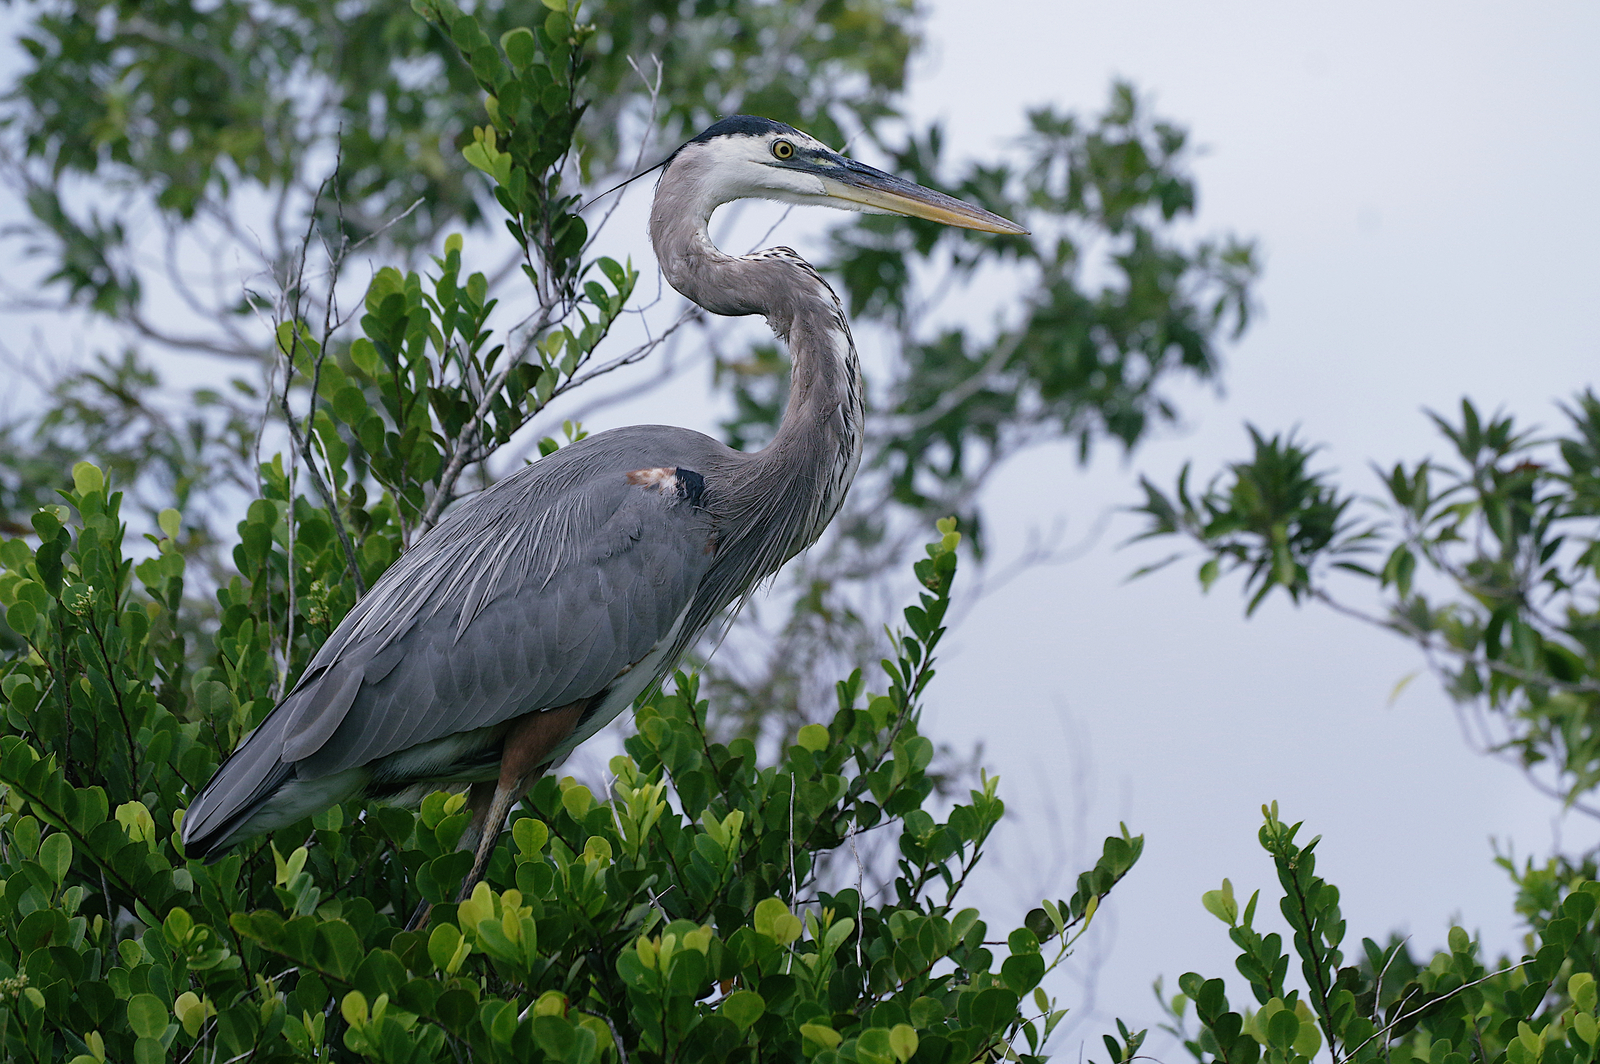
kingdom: Animalia
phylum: Chordata
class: Aves
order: Pelecaniformes
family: Ardeidae
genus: Ardea
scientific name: Ardea herodias
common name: Great blue heron
